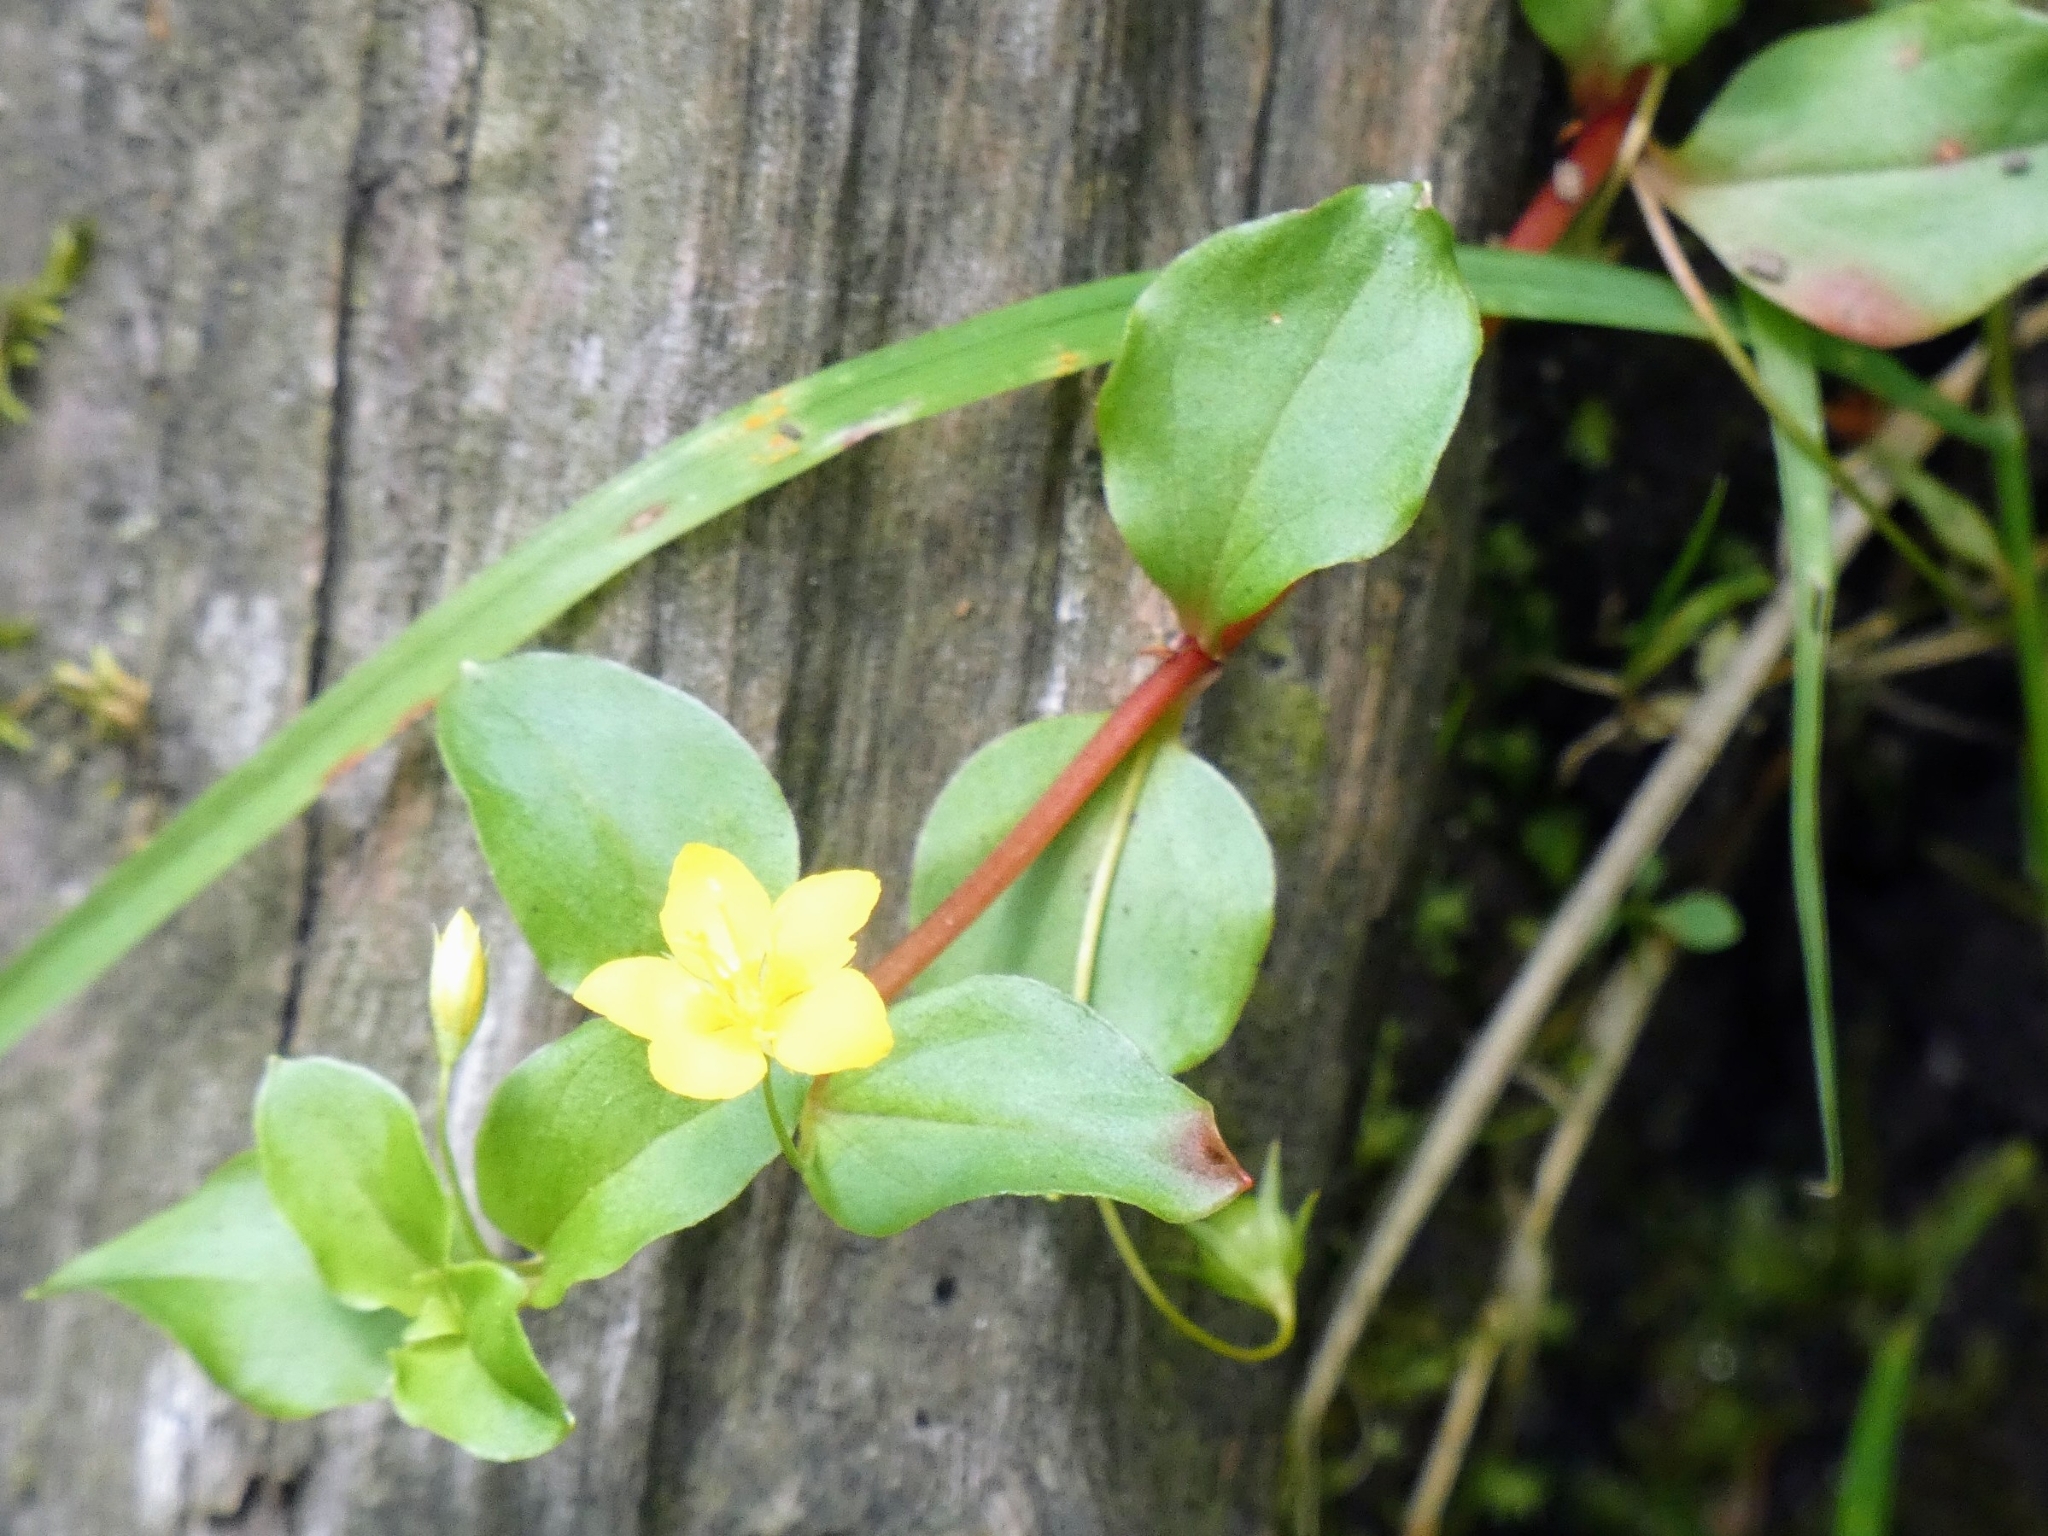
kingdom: Plantae
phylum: Tracheophyta
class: Magnoliopsida
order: Ericales
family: Primulaceae
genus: Lysimachia
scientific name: Lysimachia nemorum
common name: Yellow pimpernel
